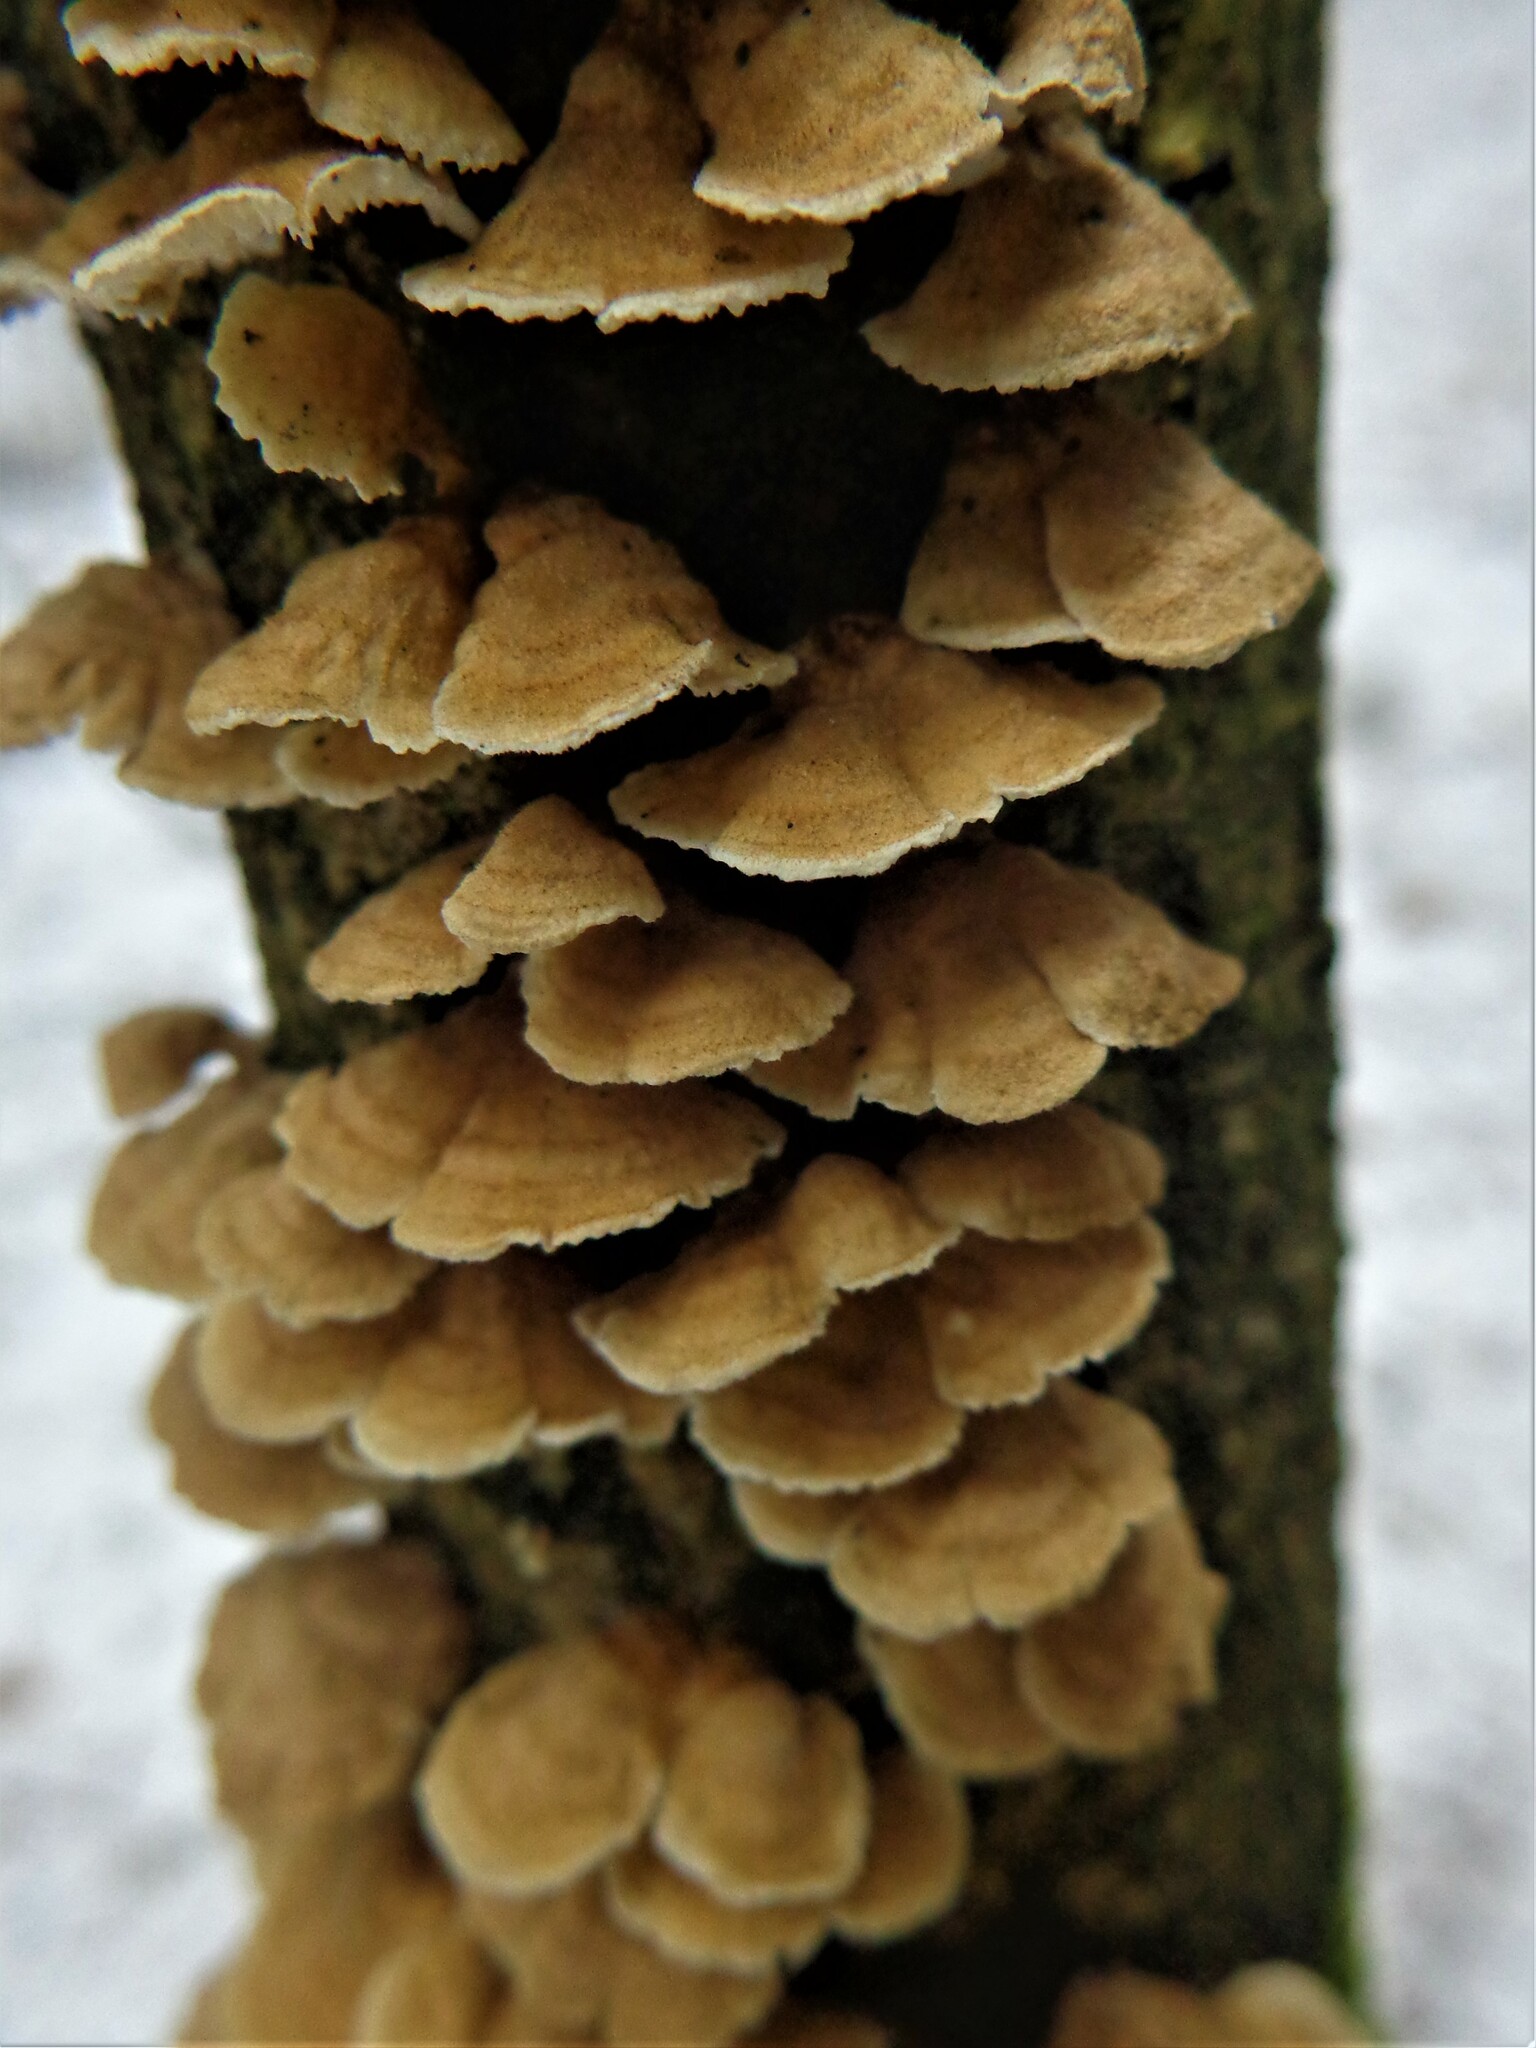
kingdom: Fungi
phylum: Basidiomycota
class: Agaricomycetes
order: Amylocorticiales
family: Amylocorticiaceae
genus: Plicaturopsis
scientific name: Plicaturopsis crispa
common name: Crimped gill
